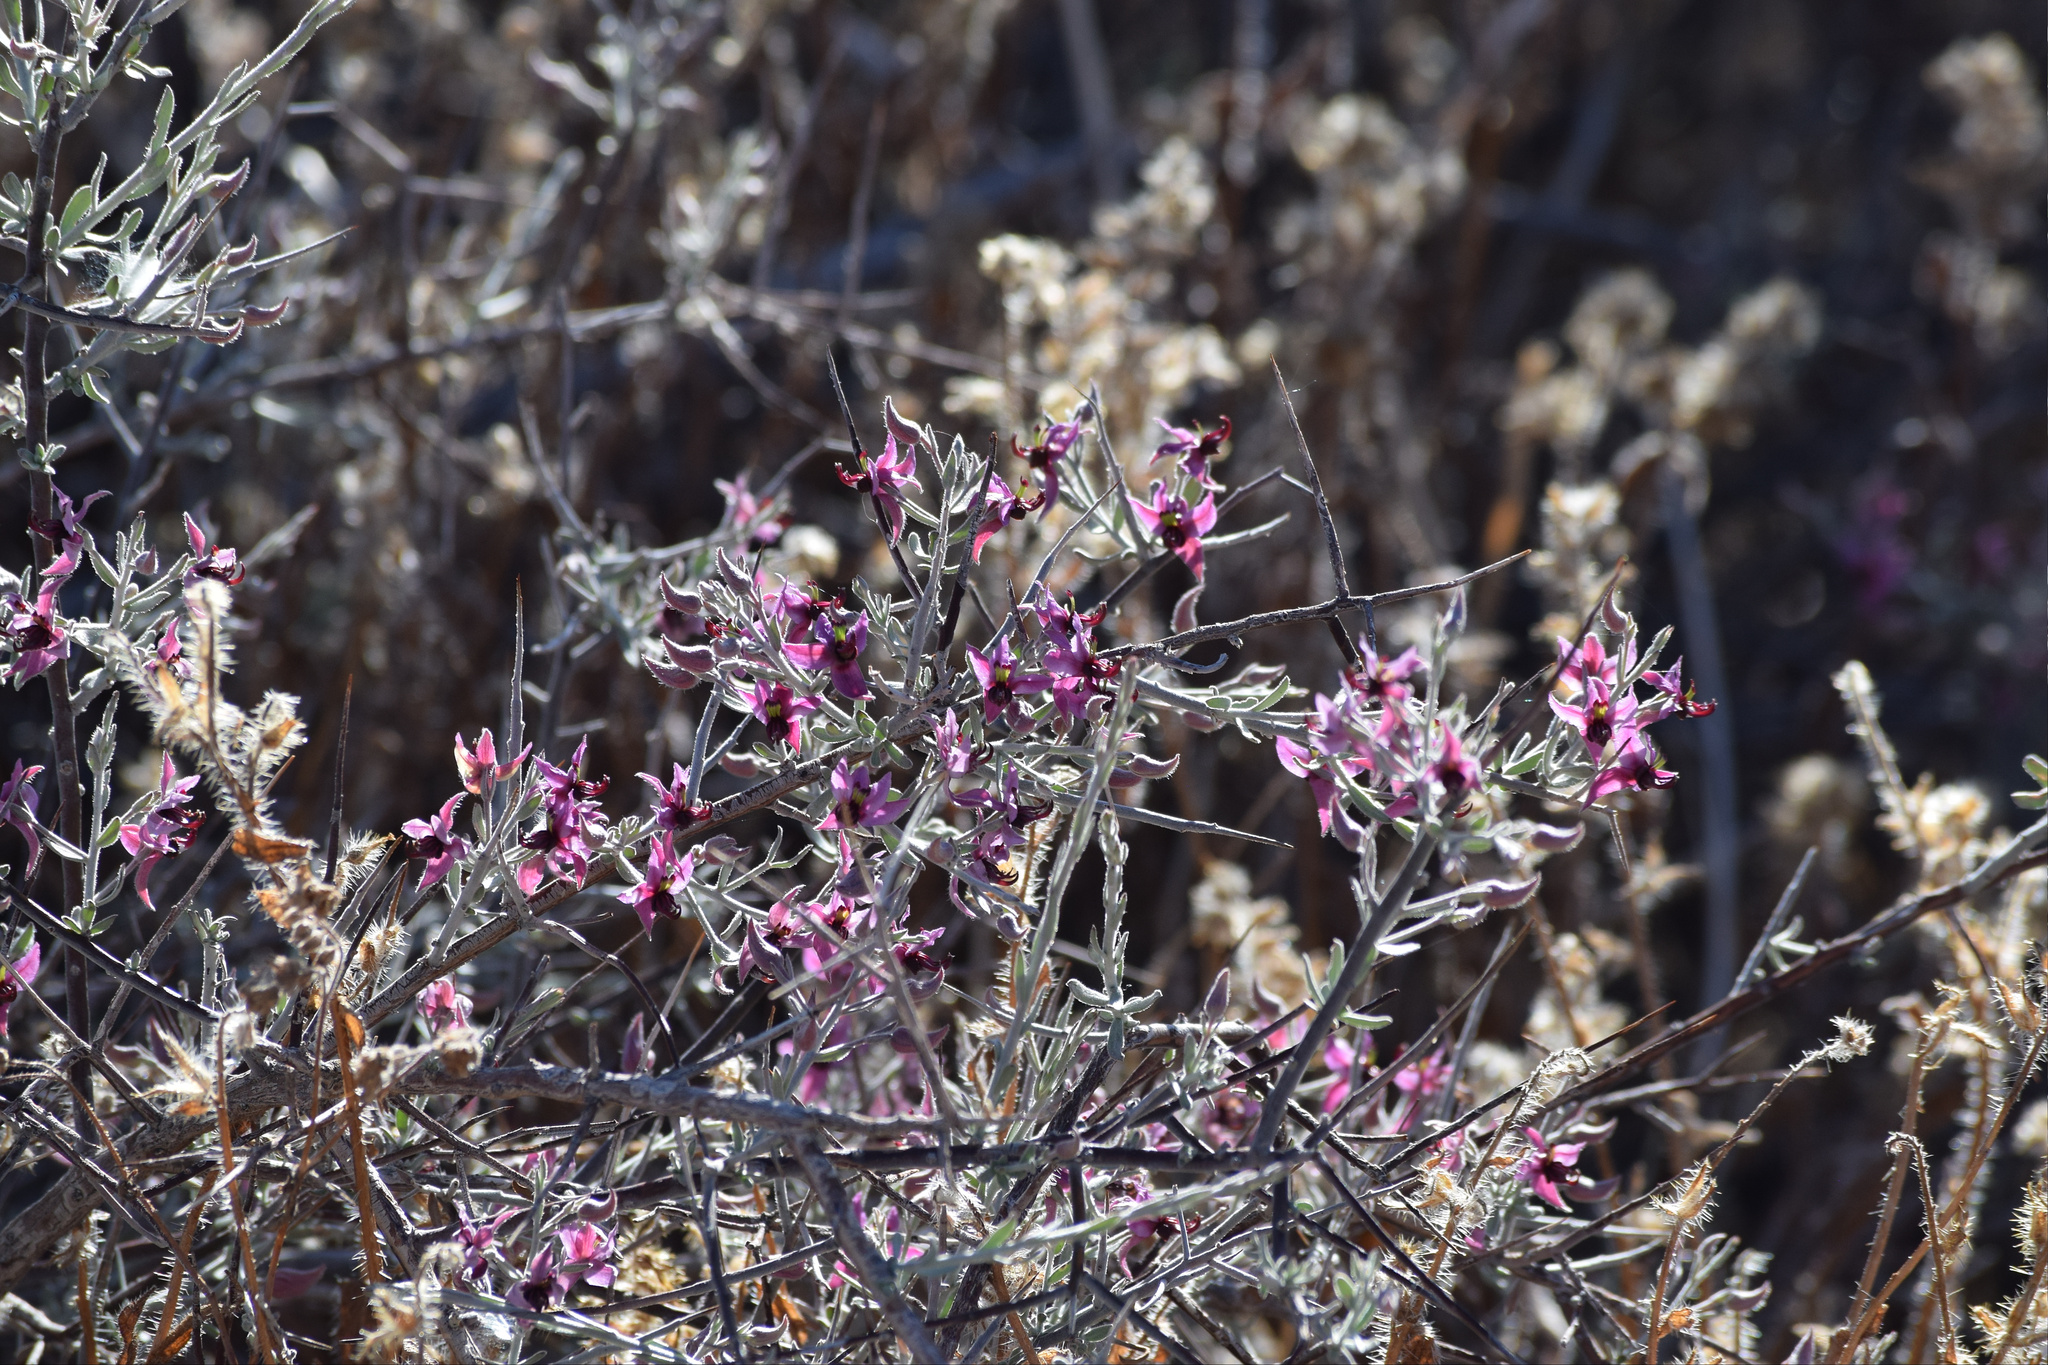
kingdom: Plantae
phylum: Tracheophyta
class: Magnoliopsida
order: Zygophyllales
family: Krameriaceae
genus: Krameria
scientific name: Krameria bicolor
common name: White ratany
